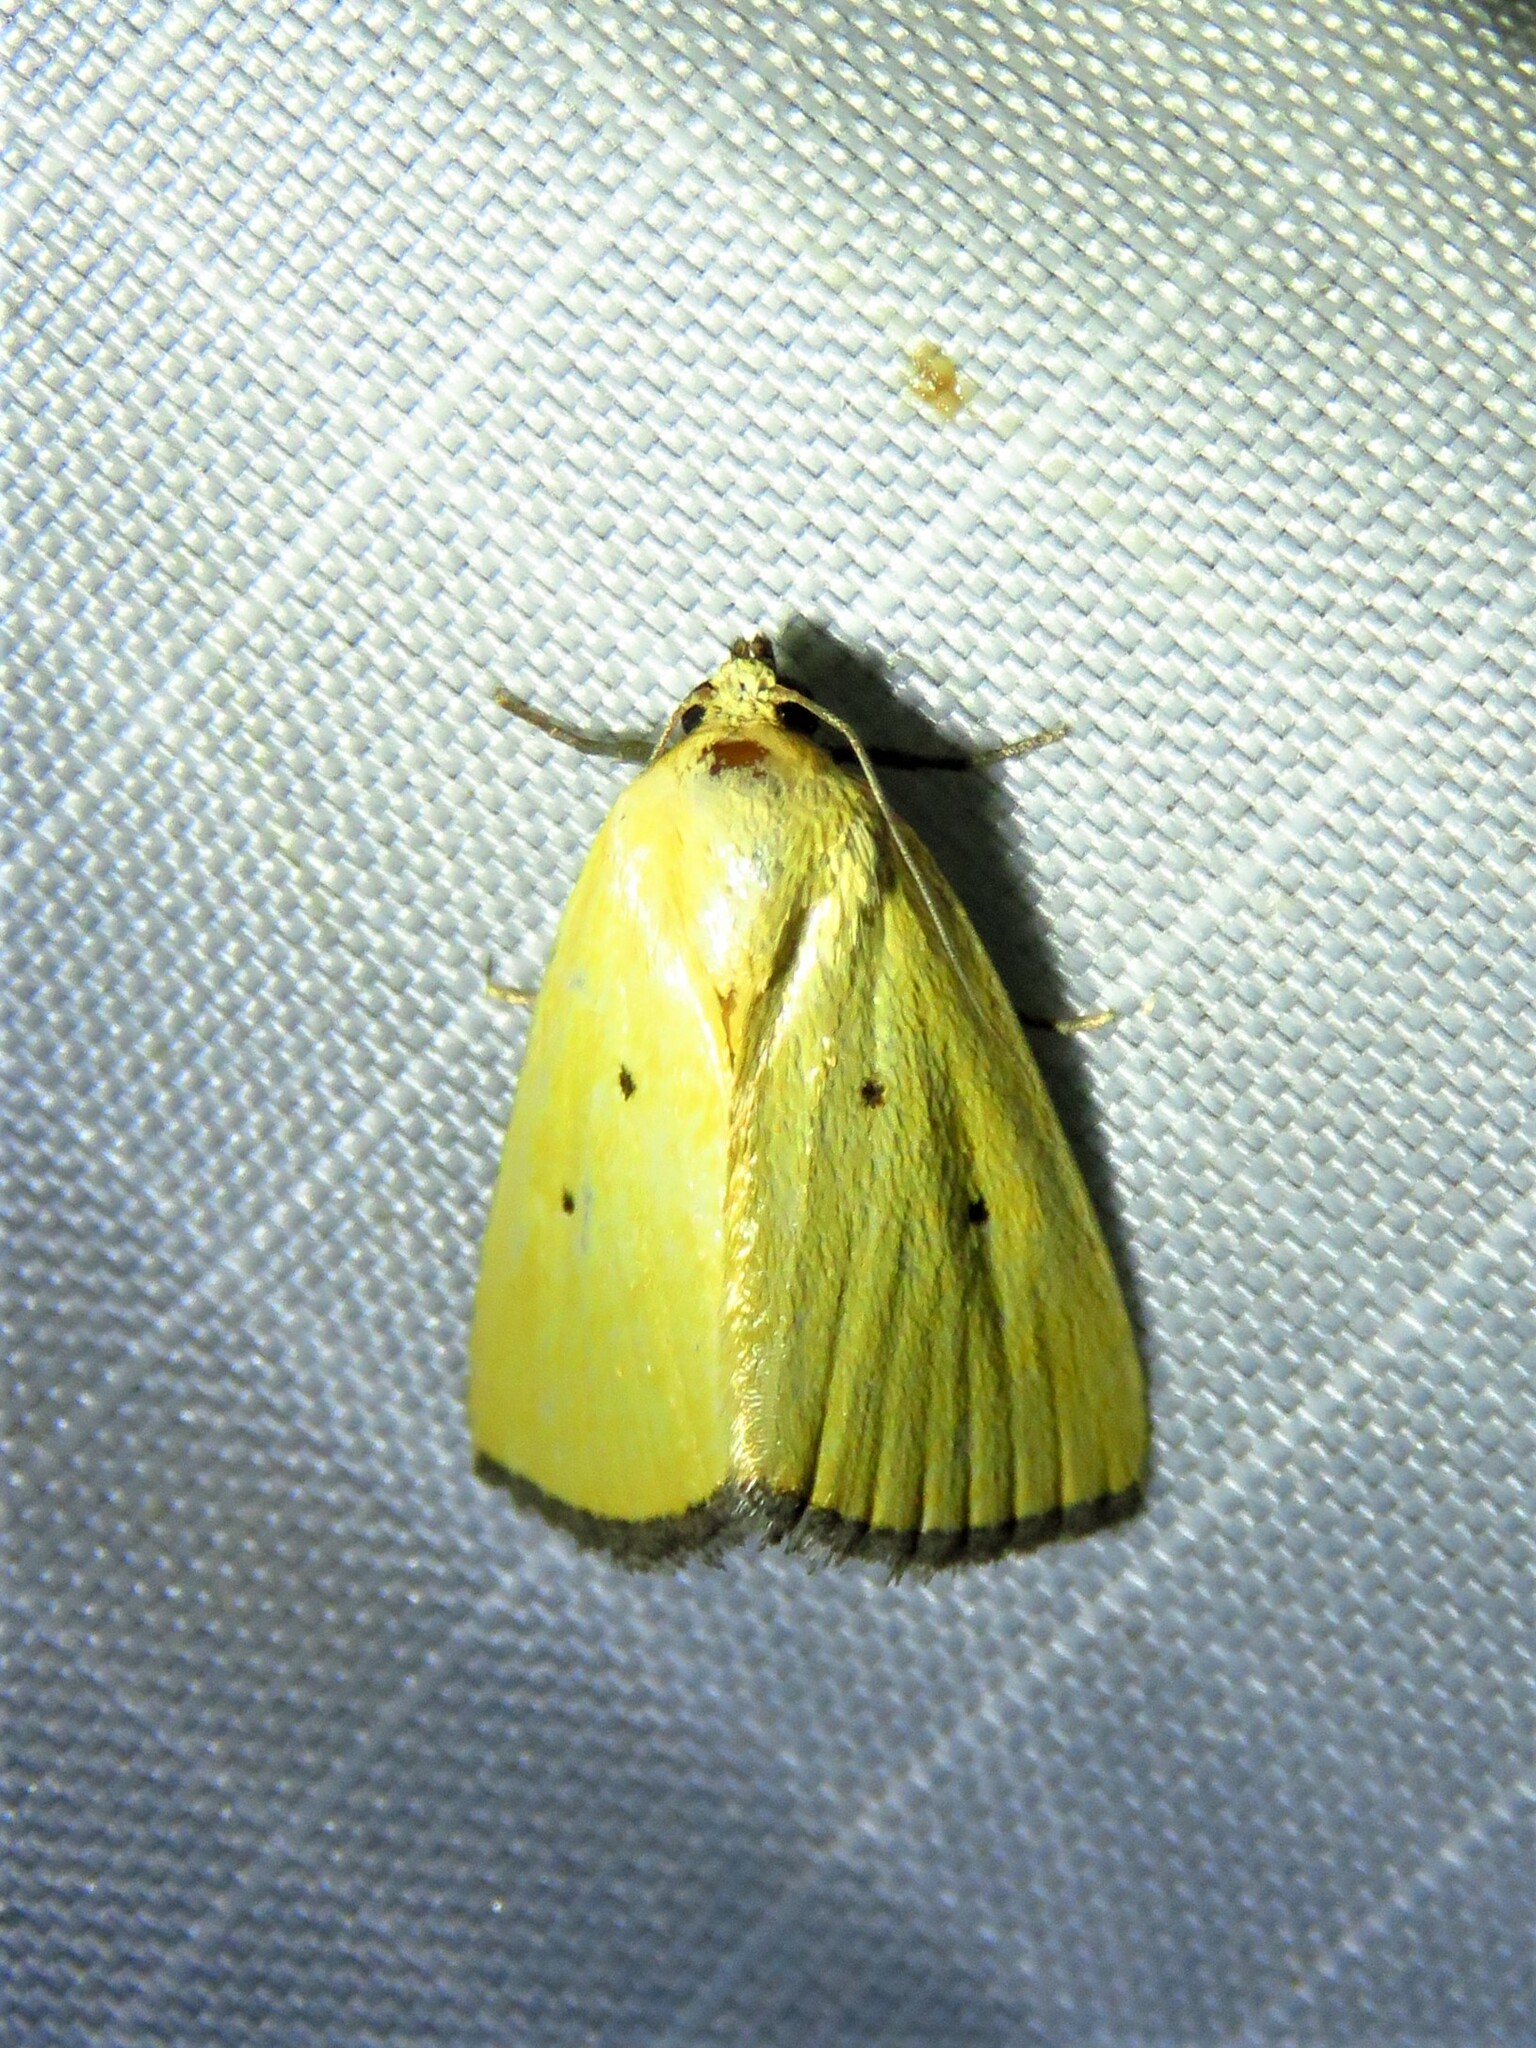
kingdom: Animalia
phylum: Arthropoda
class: Insecta
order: Lepidoptera
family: Noctuidae
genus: Marimatha
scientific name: Marimatha nigrofimbria
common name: Black-bordered lemon moth
